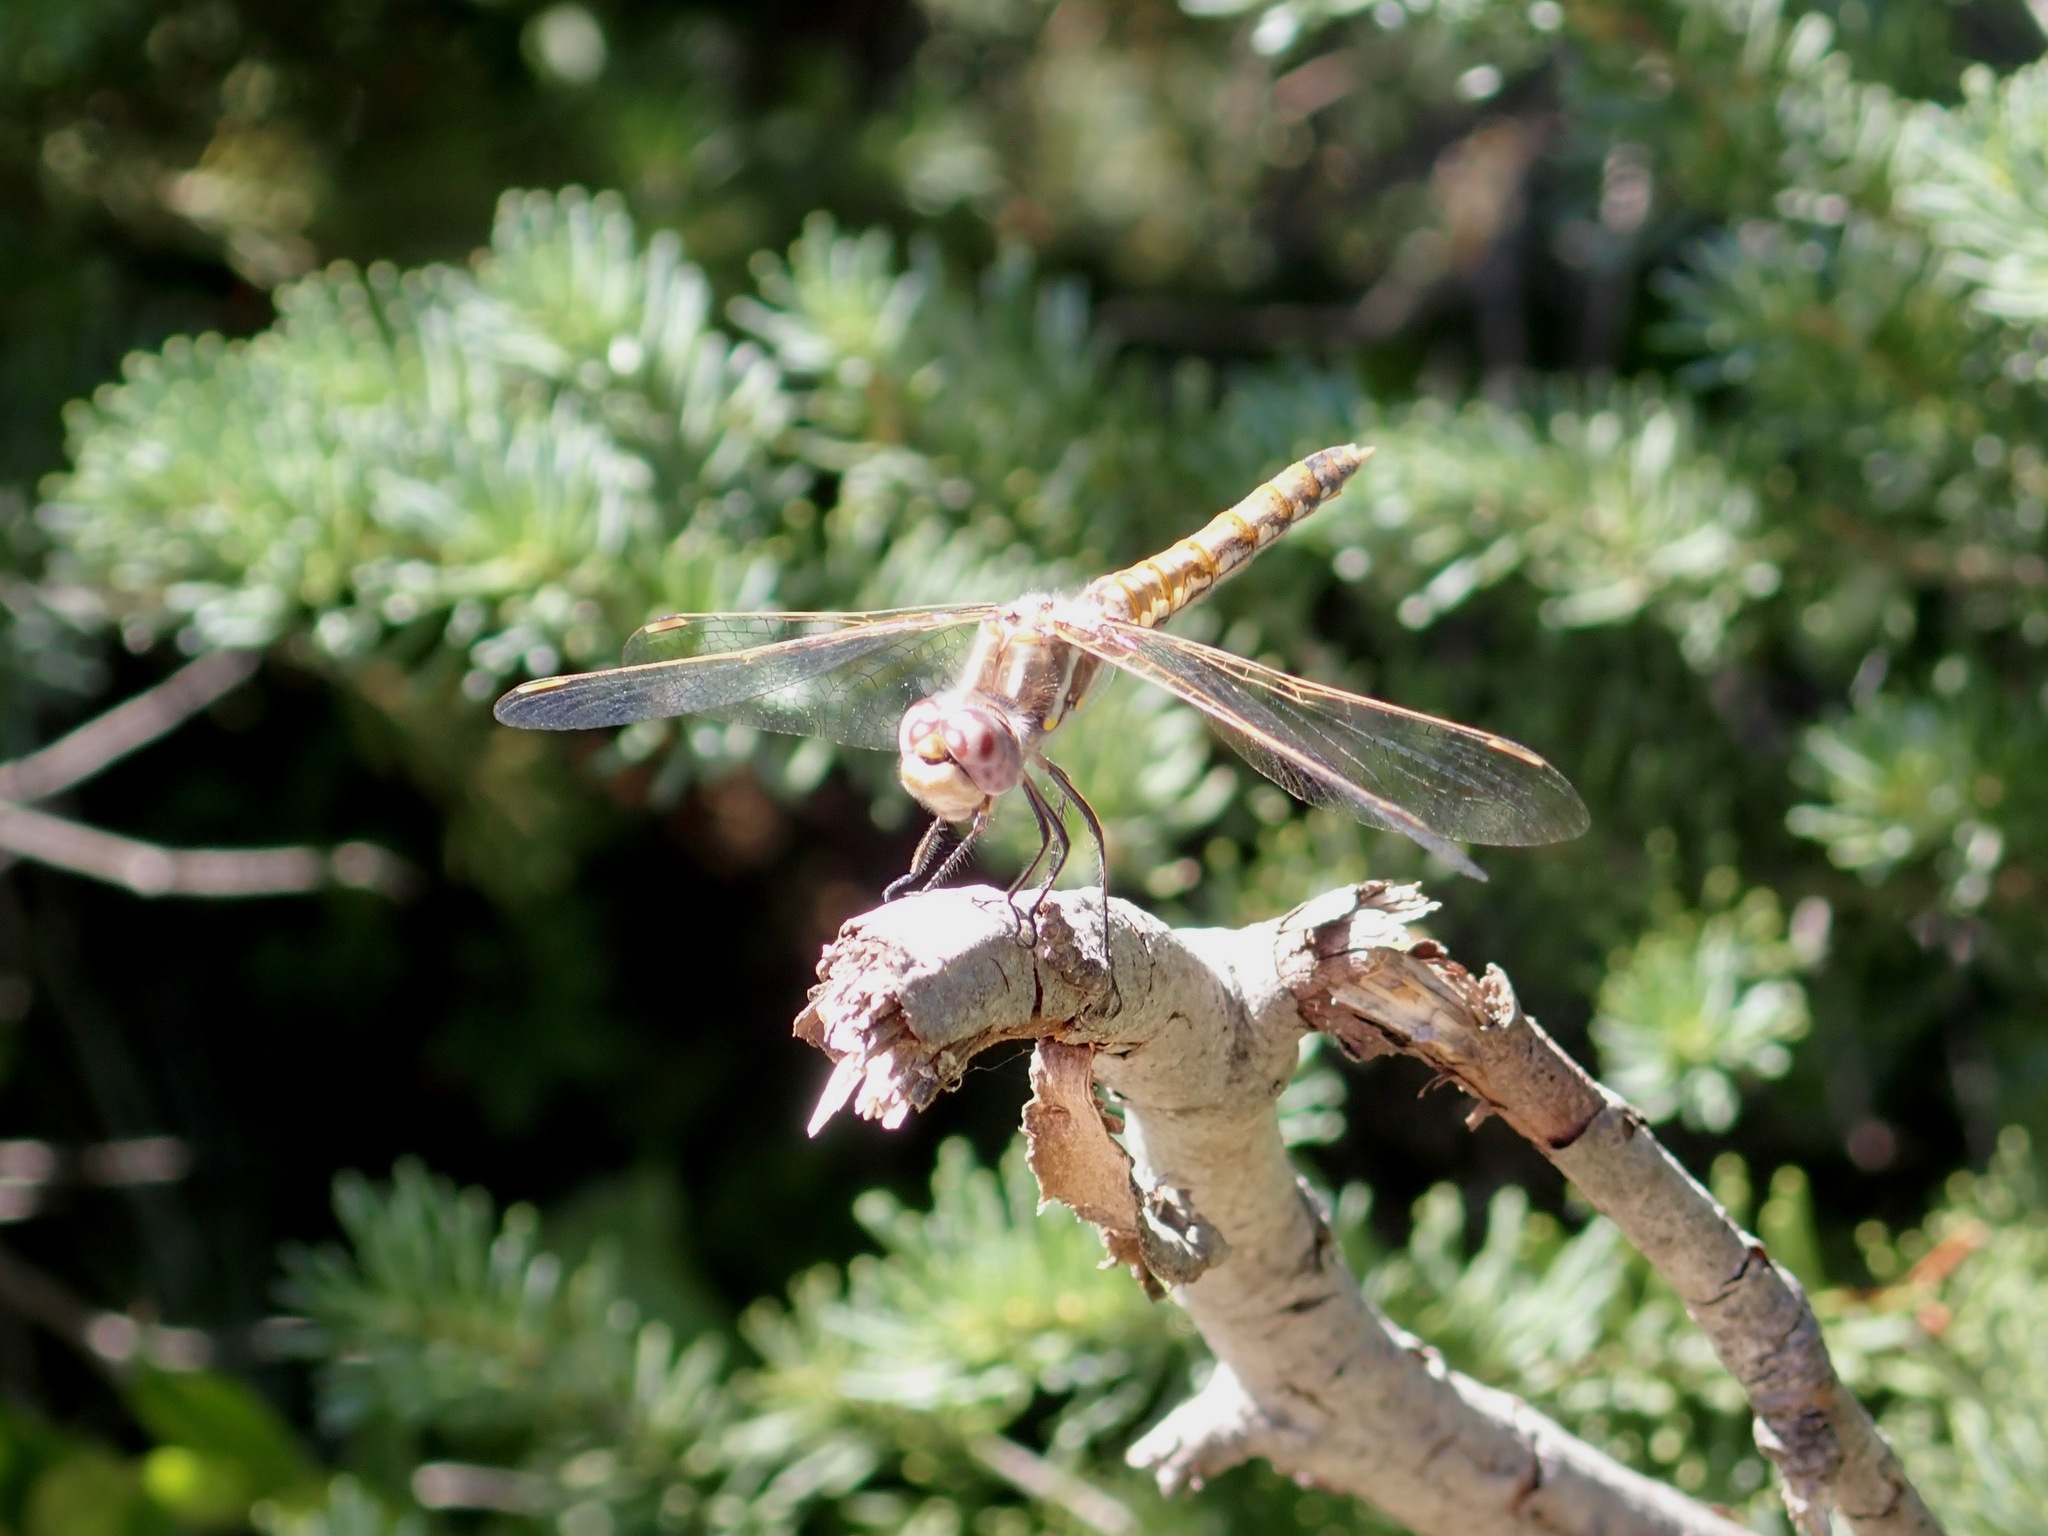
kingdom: Animalia
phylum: Arthropoda
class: Insecta
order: Odonata
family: Libellulidae
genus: Sympetrum
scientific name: Sympetrum corruptum
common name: Variegated meadowhawk
